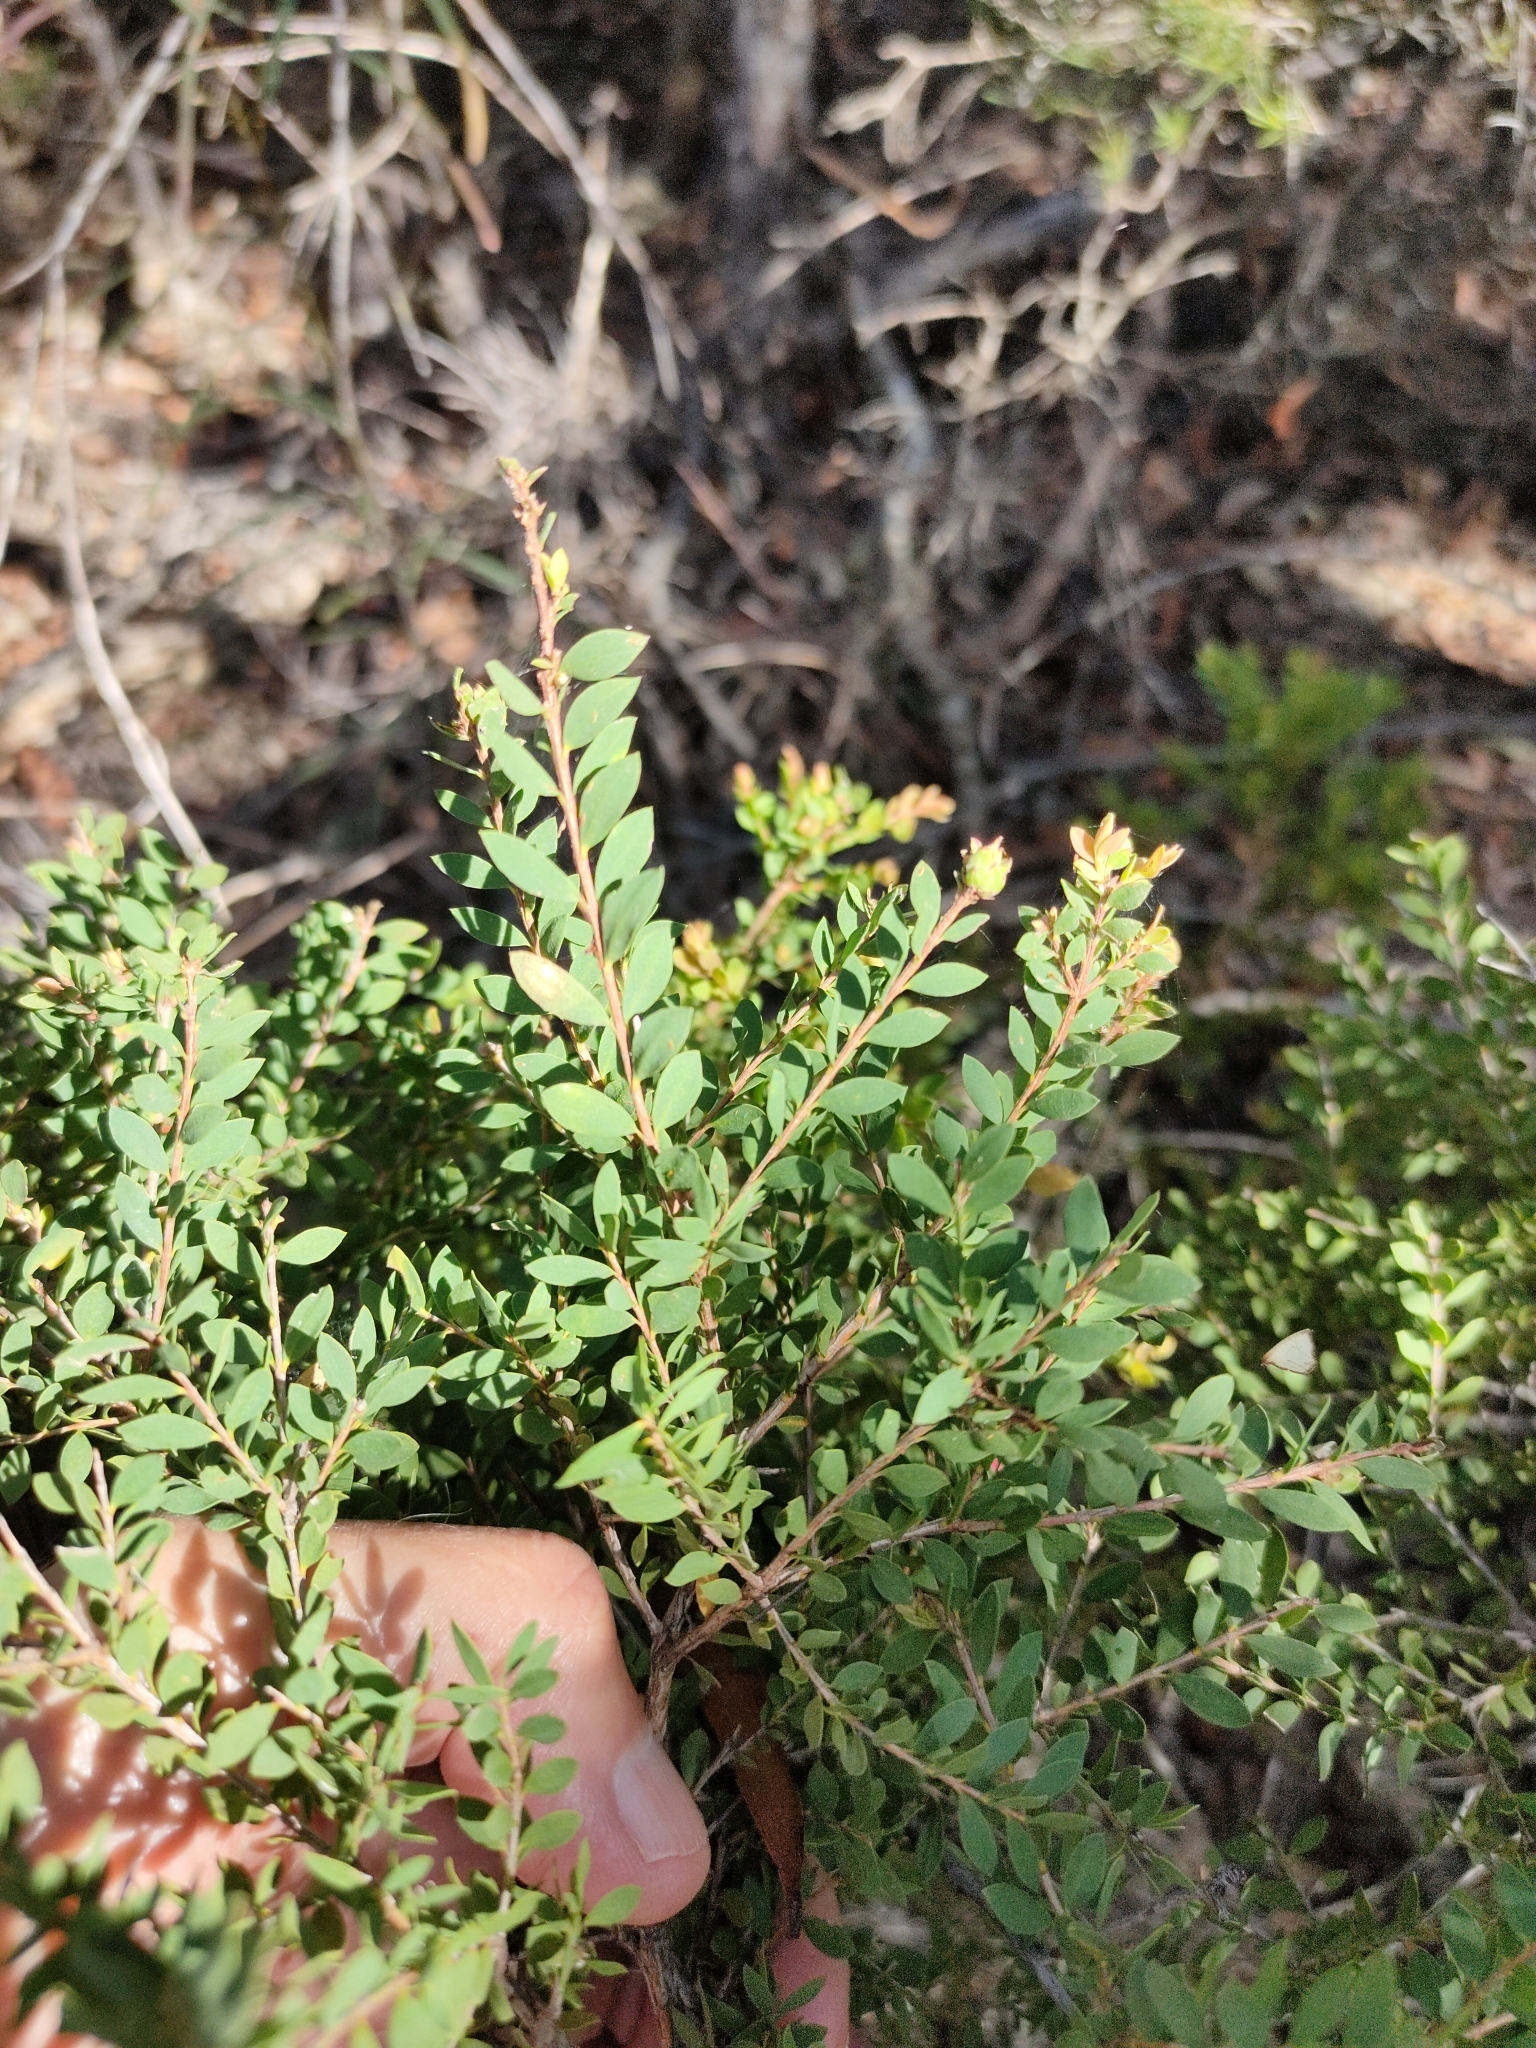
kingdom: Plantae
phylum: Tracheophyta
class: Magnoliopsida
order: Myrtales
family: Myrtaceae
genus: Melaleuca
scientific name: Melaleuca cheelii
